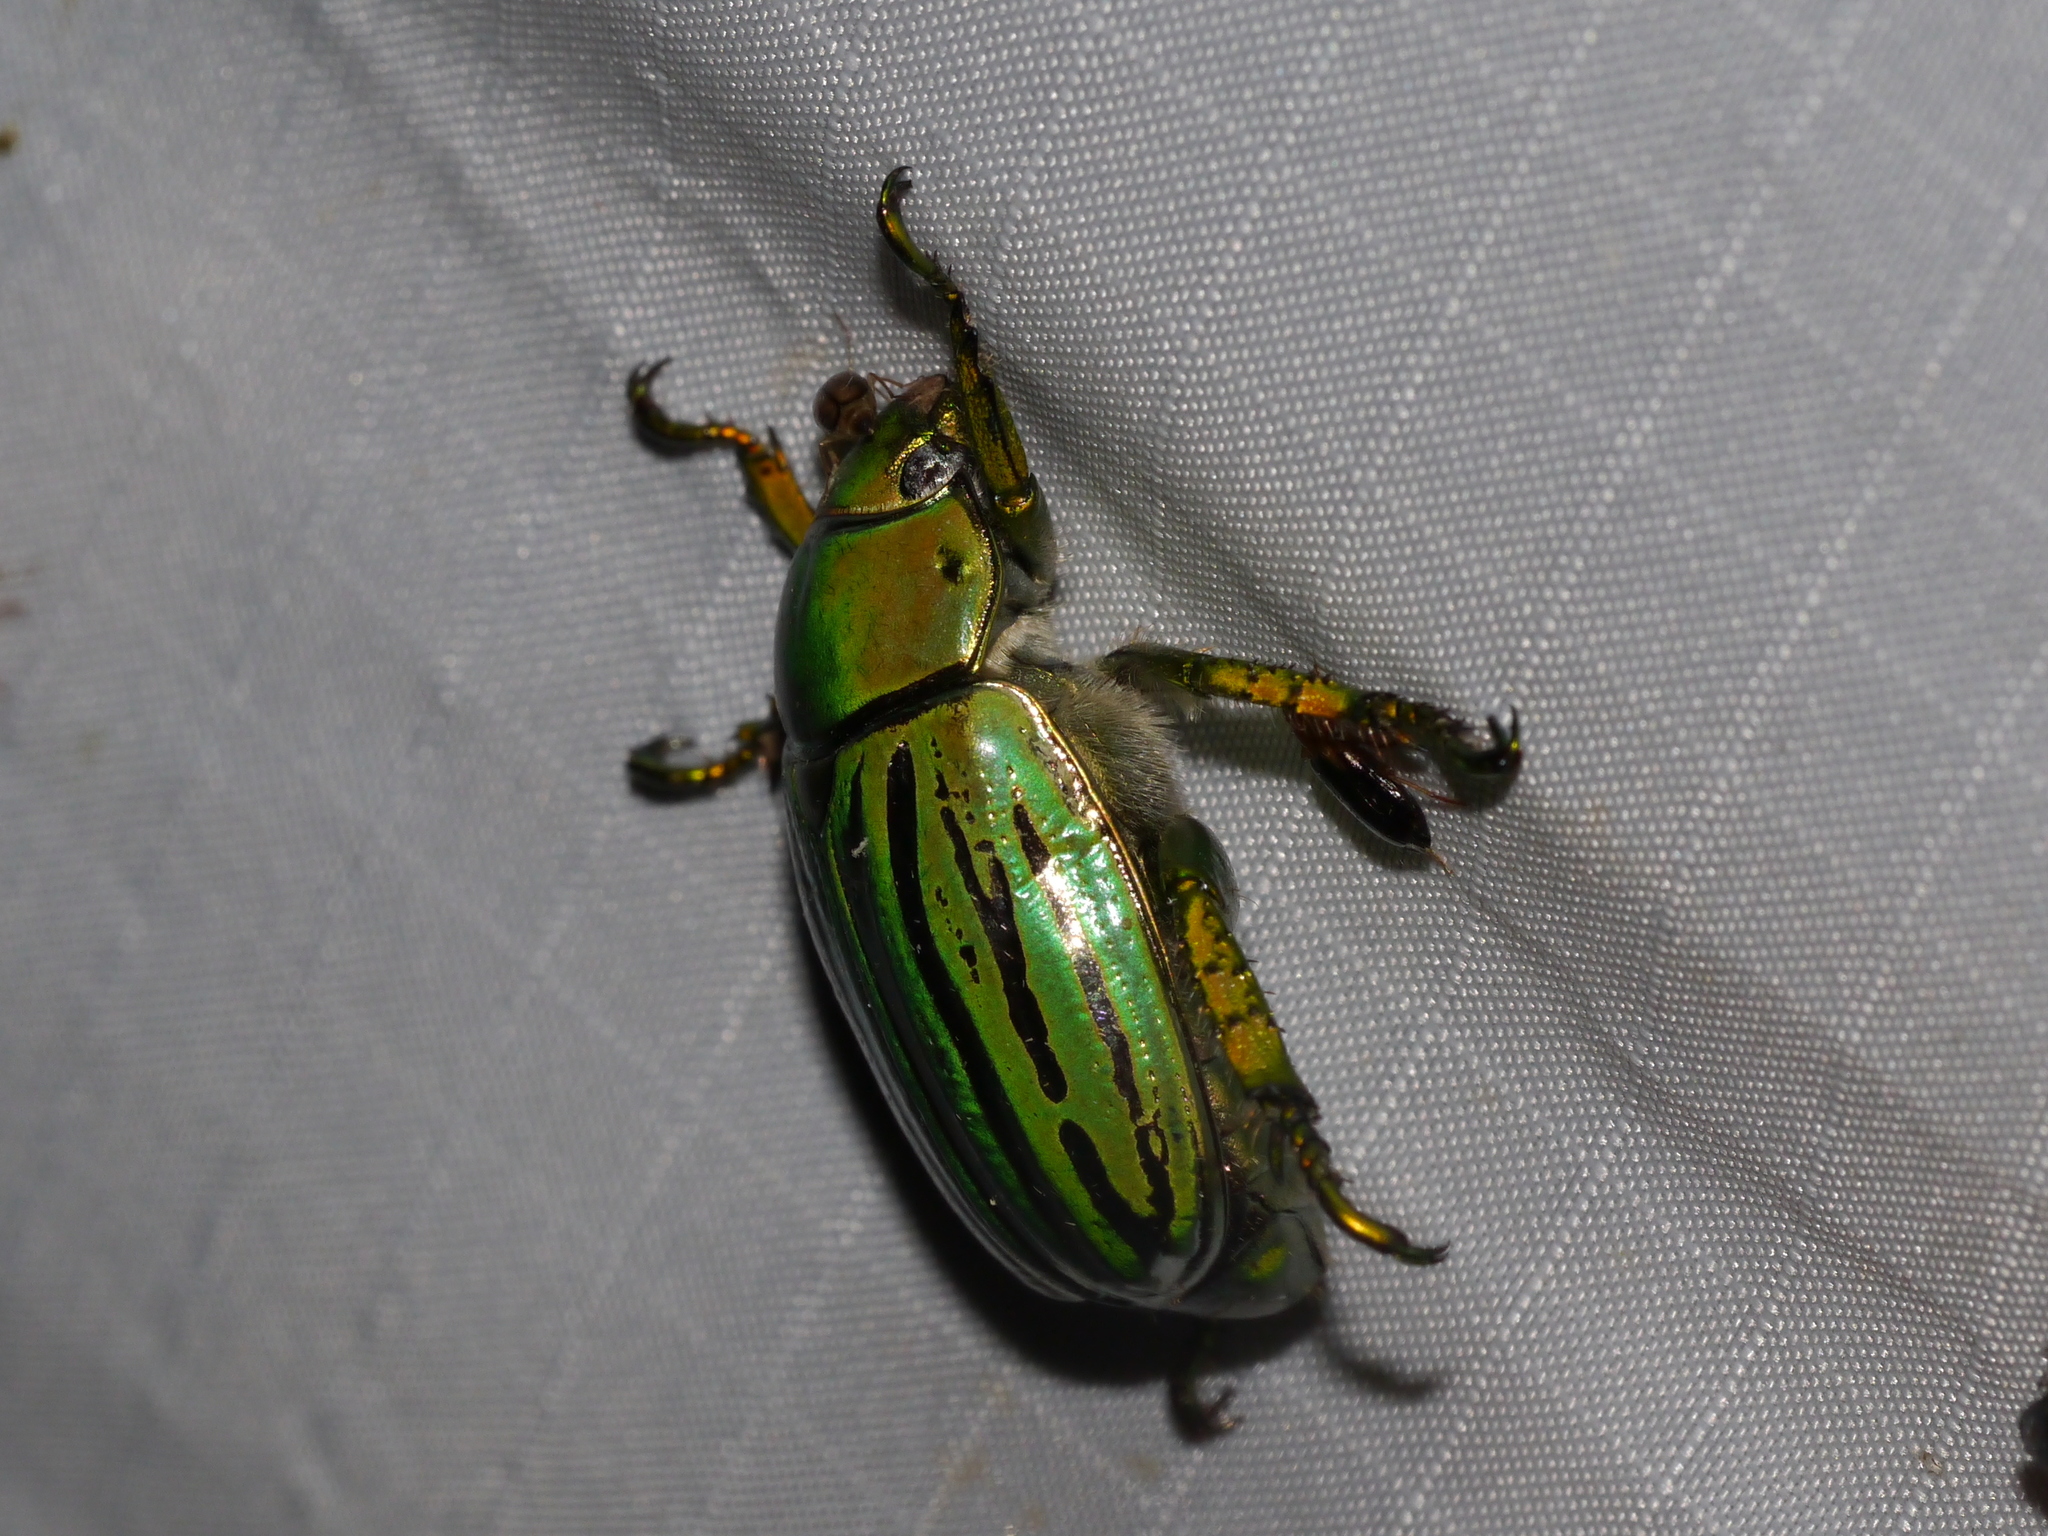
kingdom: Animalia
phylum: Arthropoda
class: Insecta
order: Coleoptera
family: Scarabaeidae
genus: Chrysina
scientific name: Chrysina gloriosa
